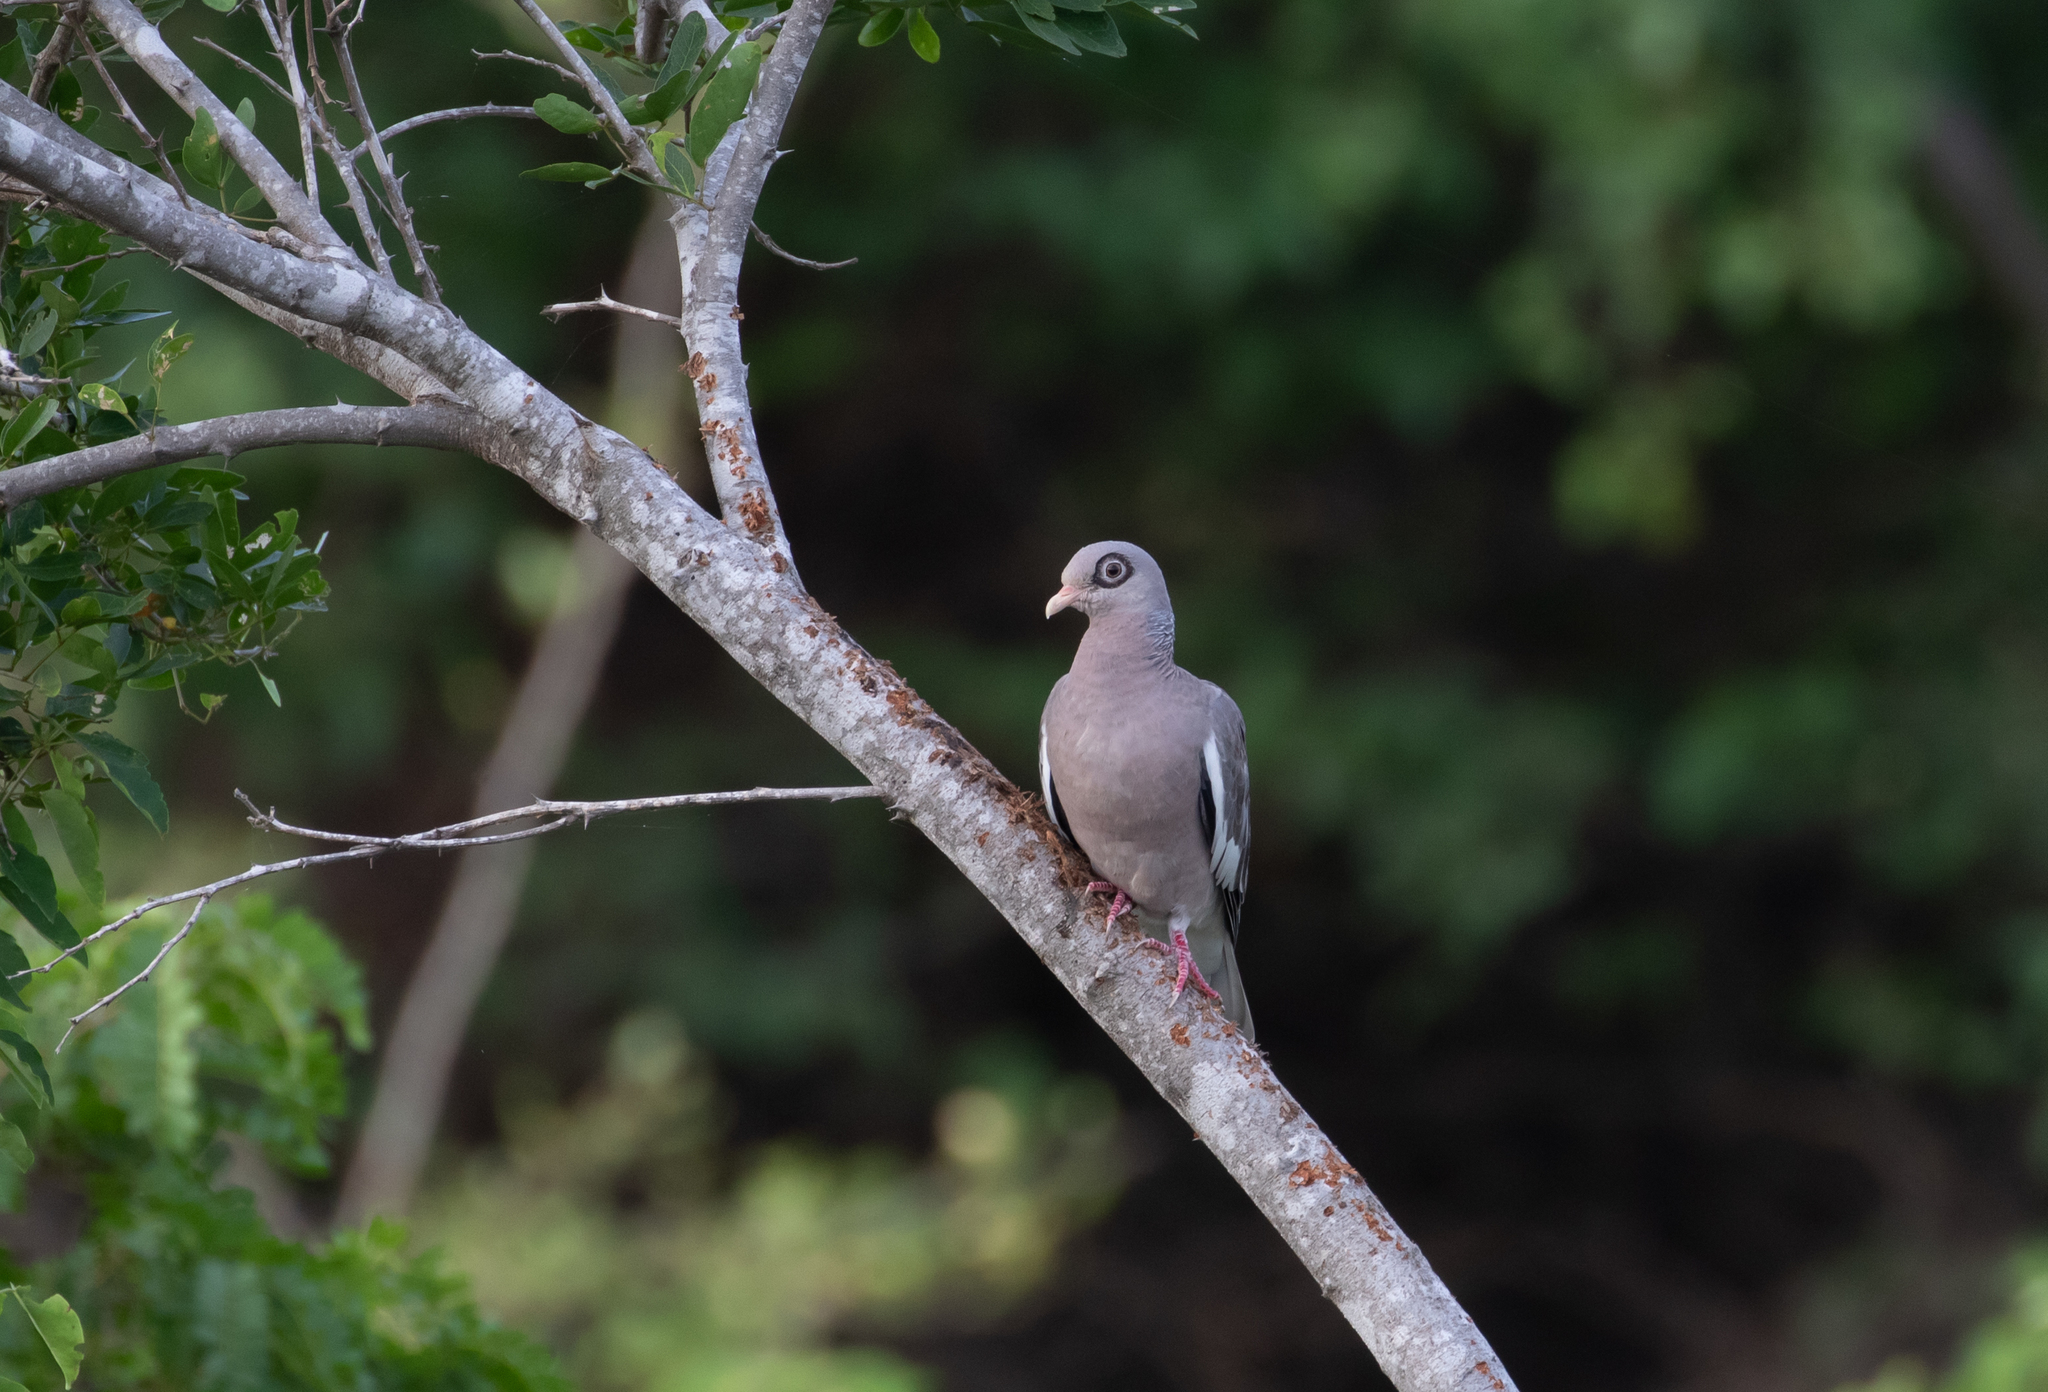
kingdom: Animalia
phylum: Chordata
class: Aves
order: Columbiformes
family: Columbidae
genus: Patagioenas
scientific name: Patagioenas corensis
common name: Bare-eyed pigeon
